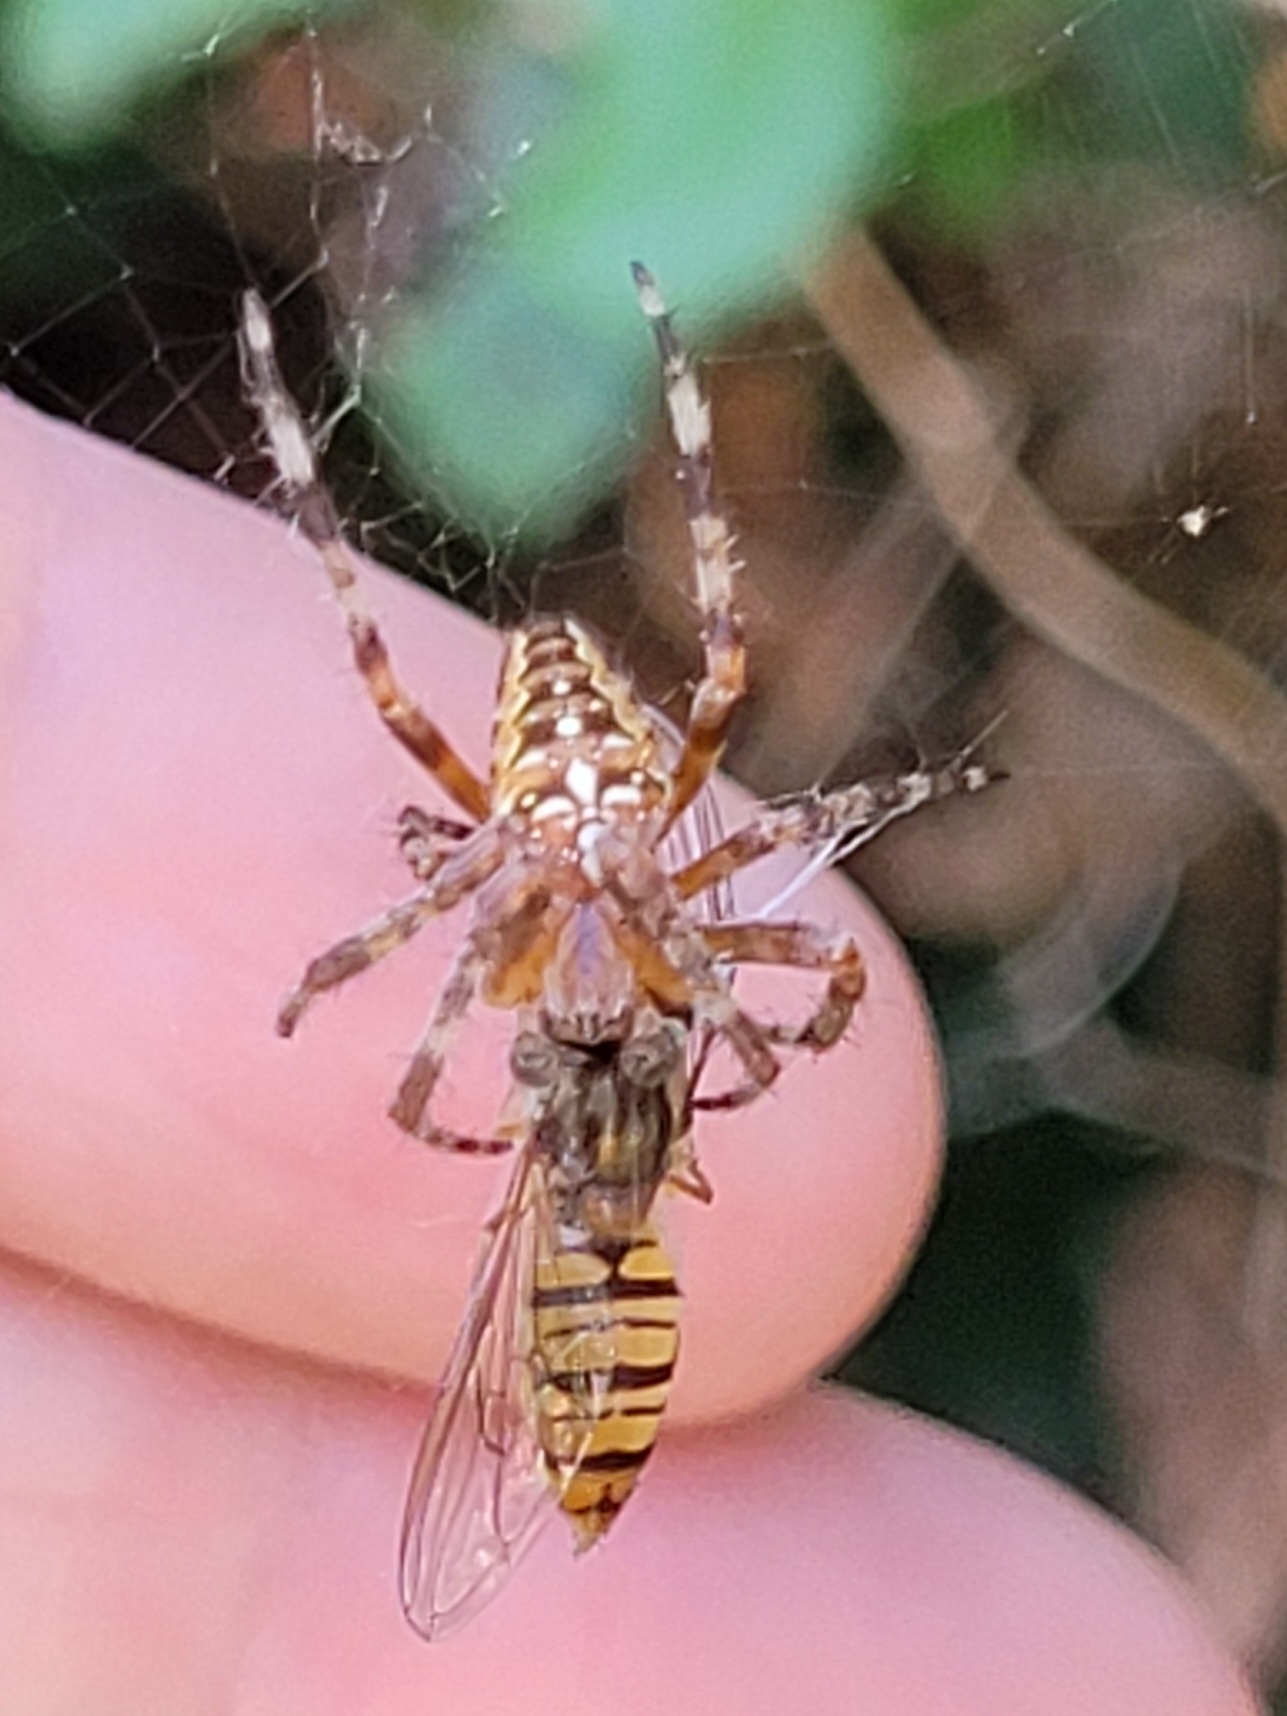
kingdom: Animalia
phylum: Arthropoda
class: Arachnida
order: Araneae
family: Araneidae
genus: Araneus
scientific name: Araneus diadematus
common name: Cross orbweaver
